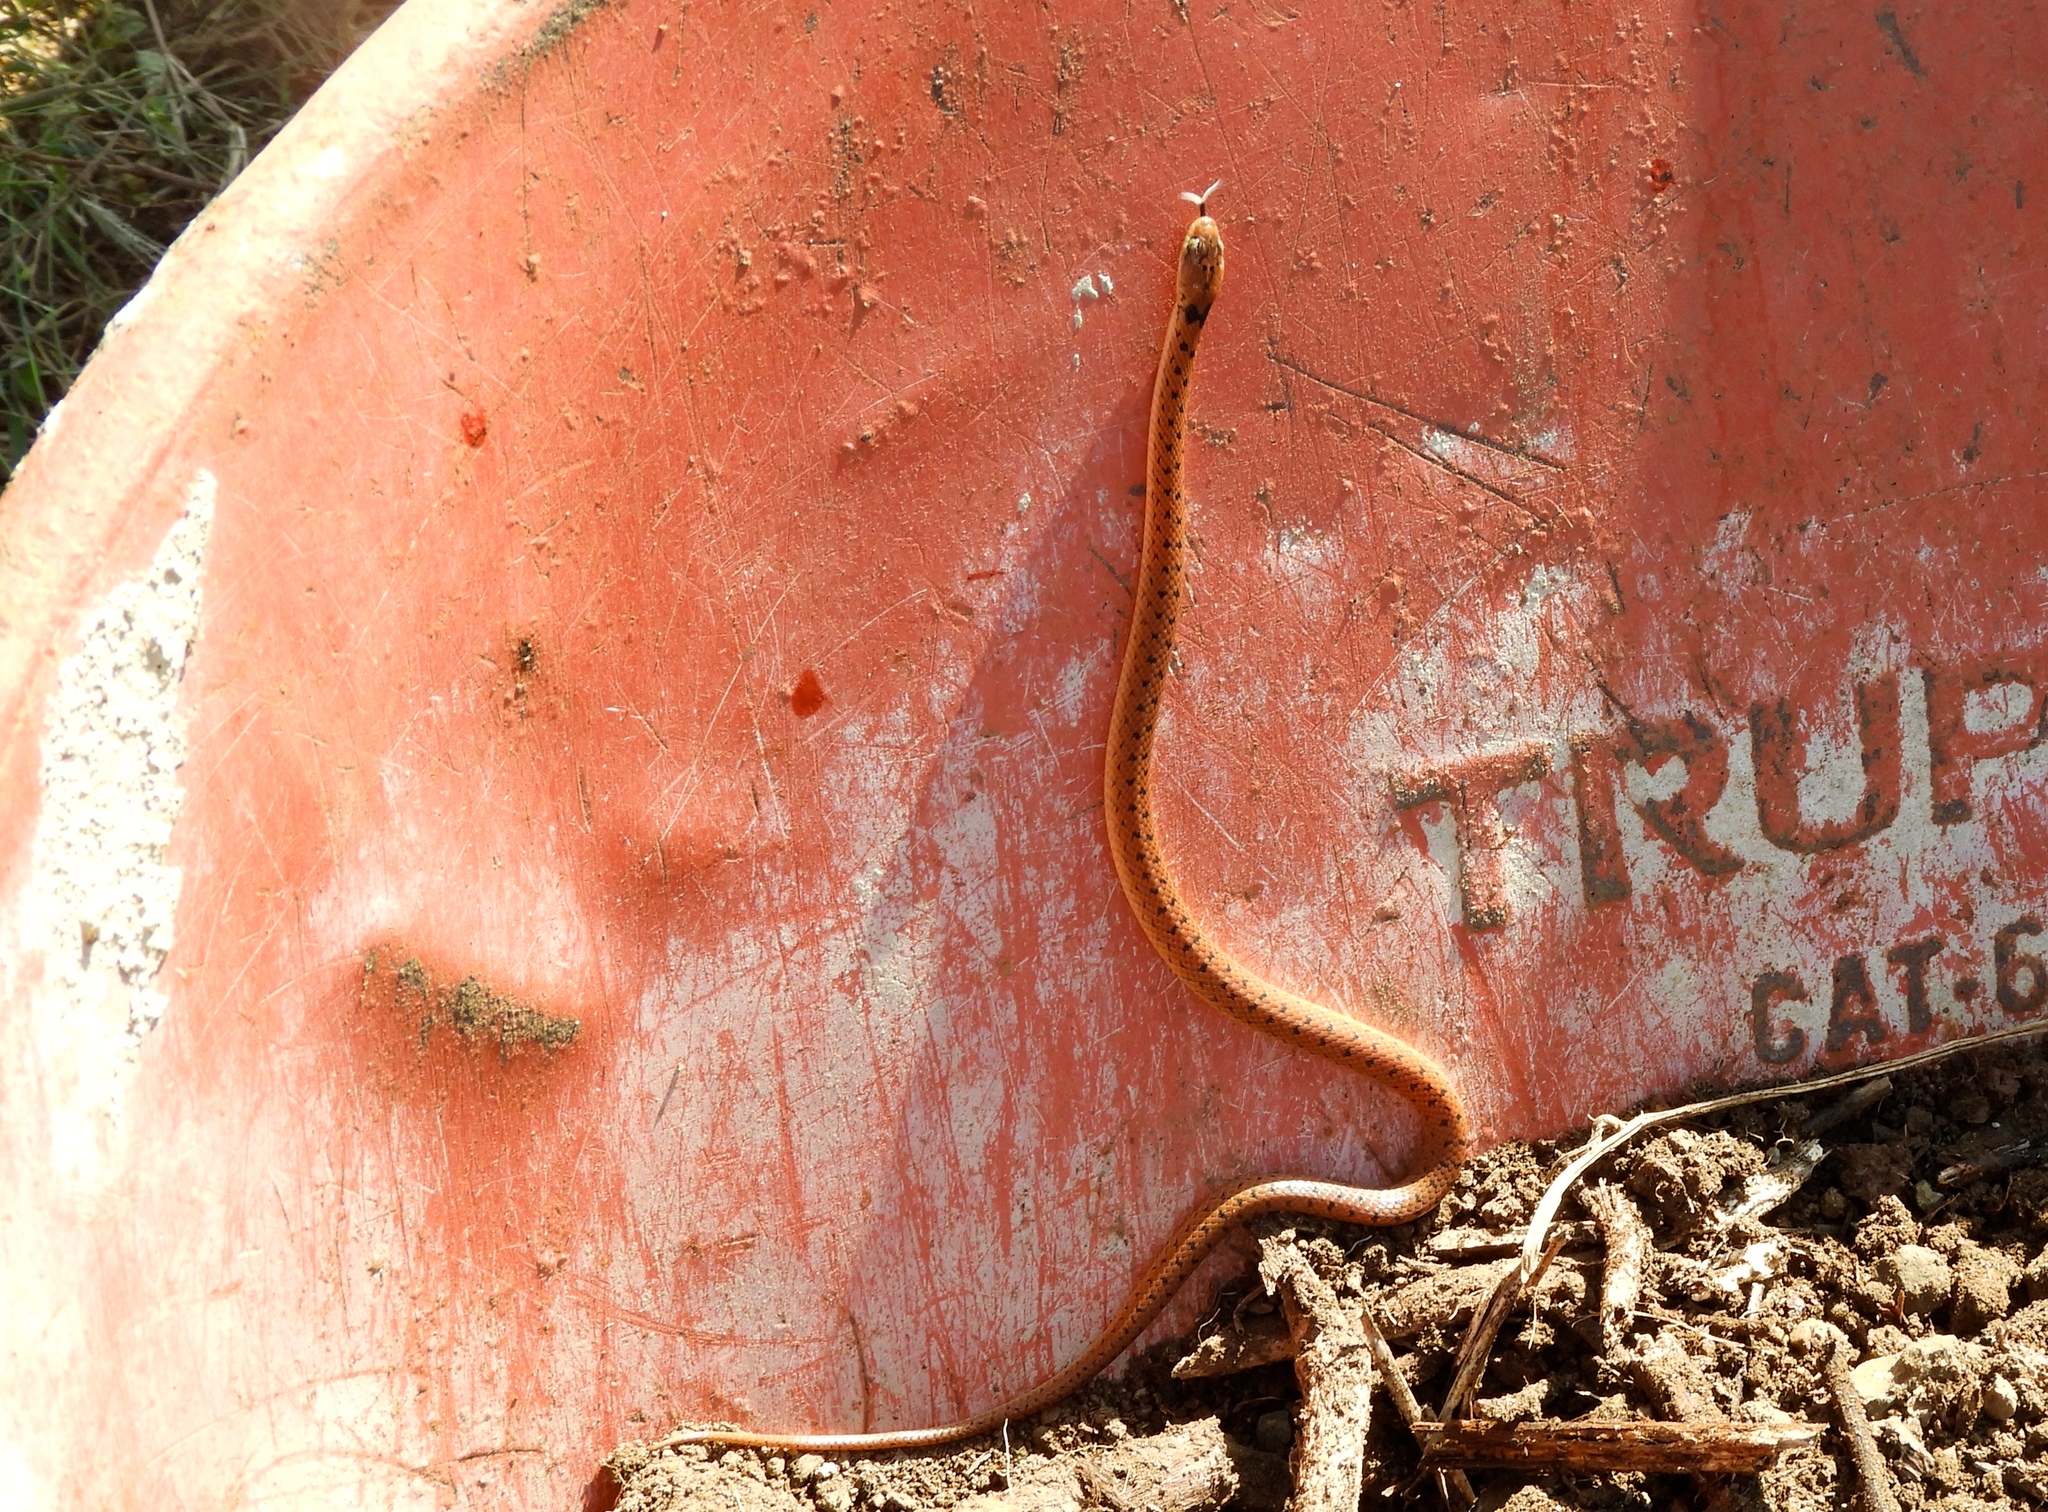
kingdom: Animalia
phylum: Chordata
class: Squamata
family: Colubridae
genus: Leptodeira
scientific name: Leptodeira punctata
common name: Western cat-eyed snake
